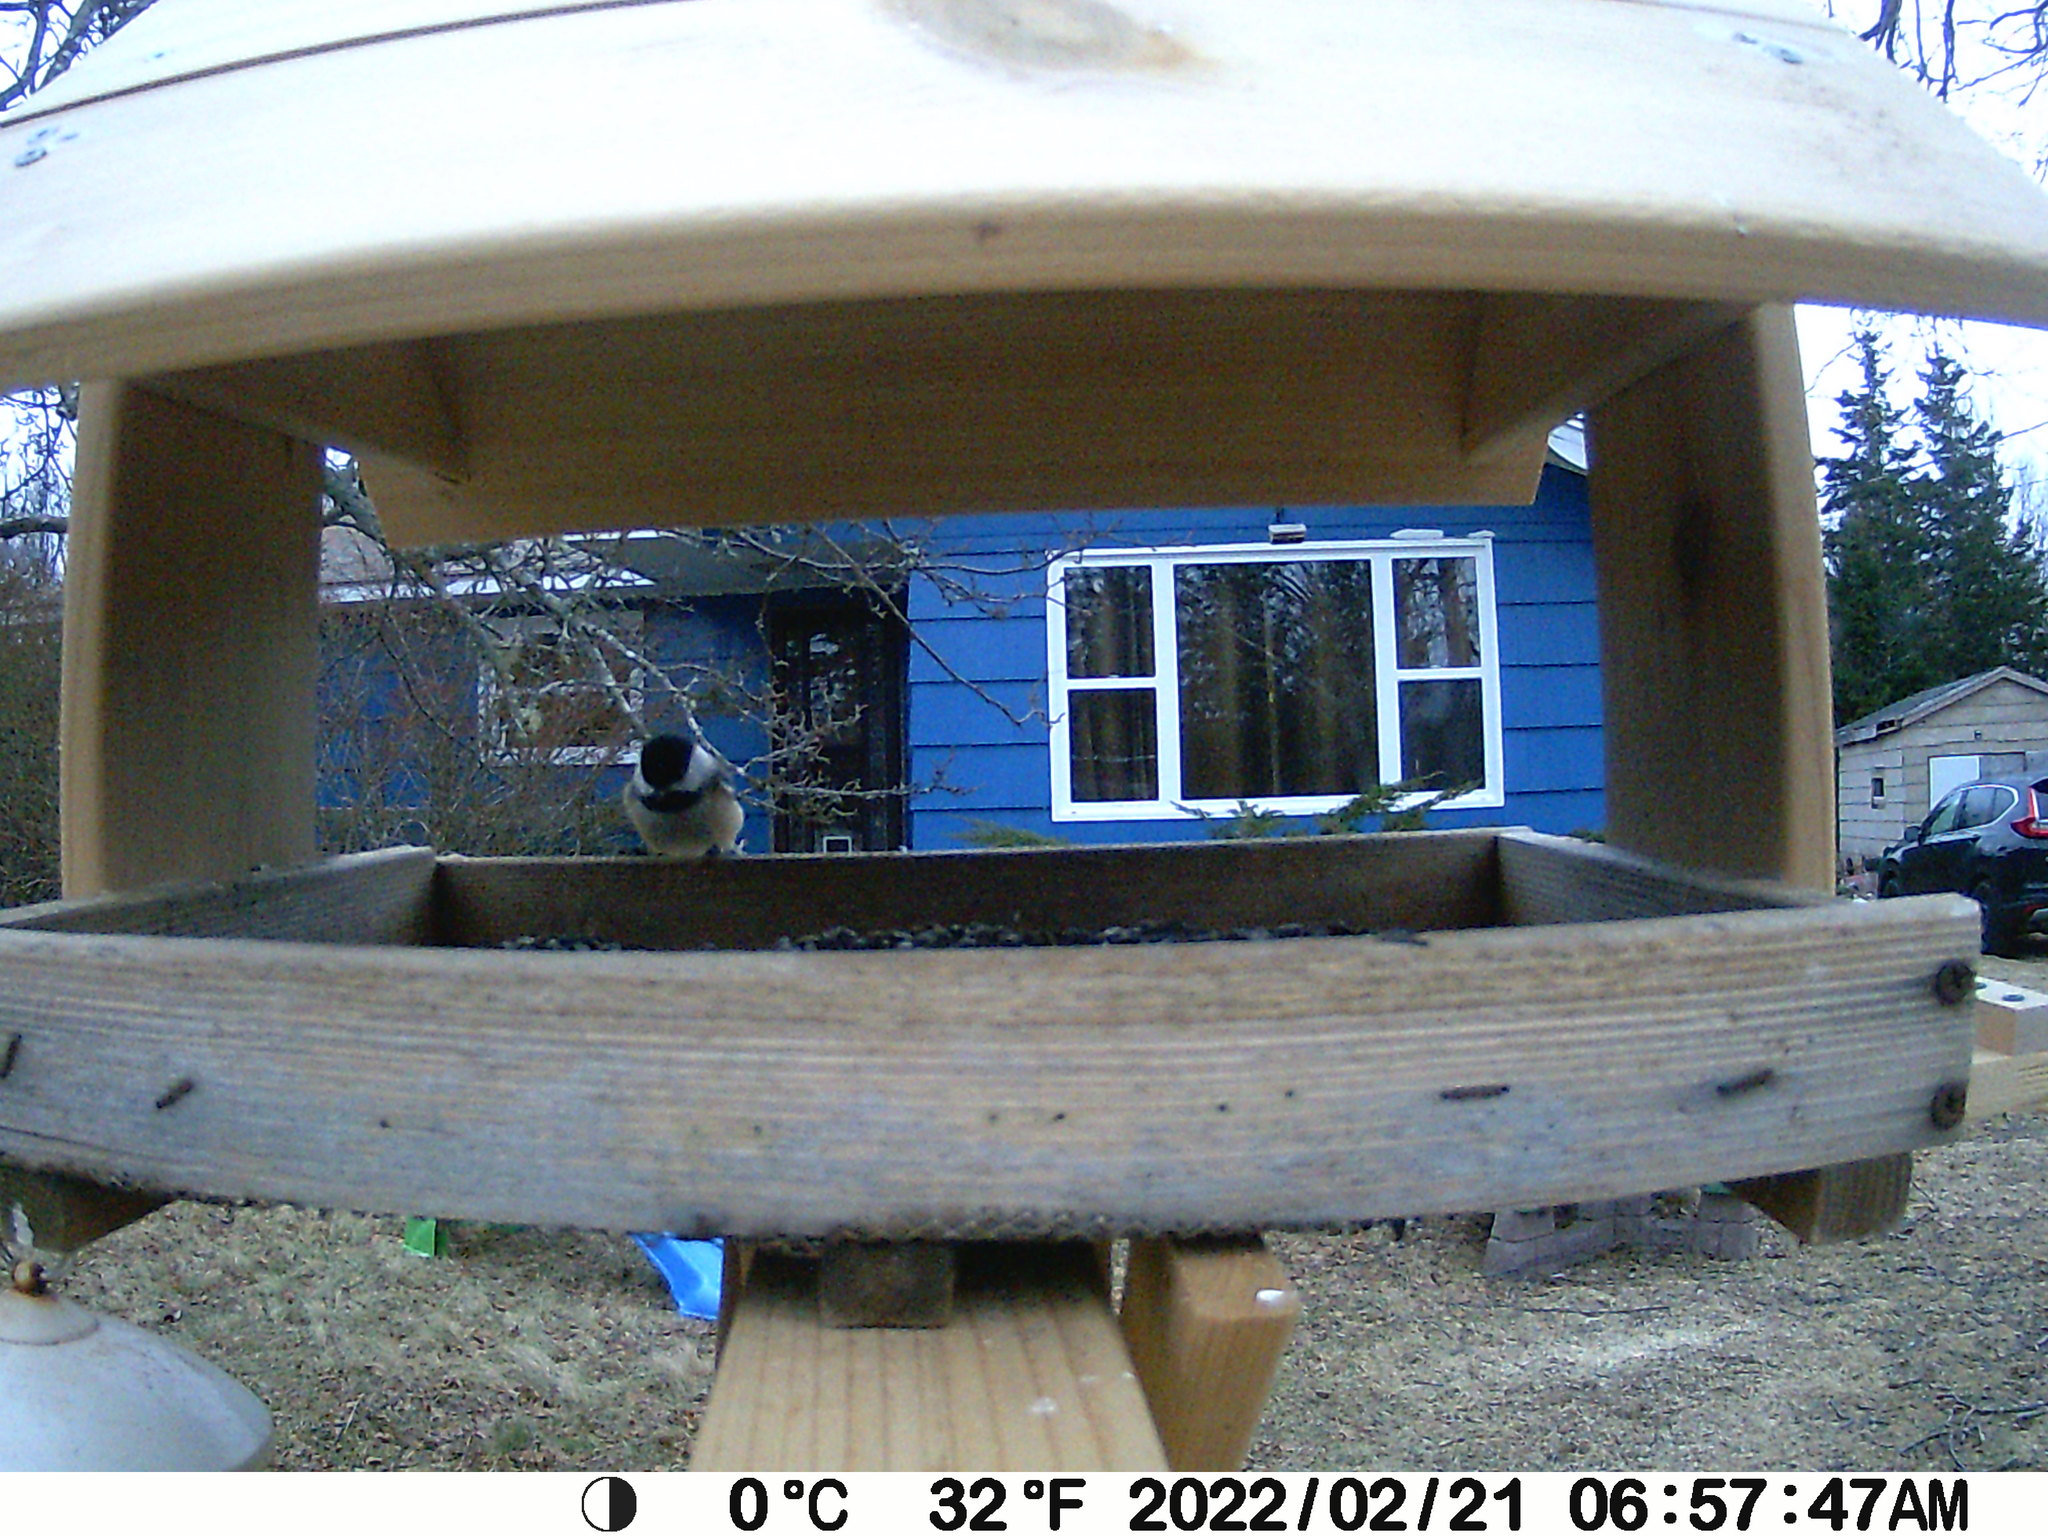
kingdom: Animalia
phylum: Chordata
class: Aves
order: Passeriformes
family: Paridae
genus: Poecile
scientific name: Poecile atricapillus
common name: Black-capped chickadee
